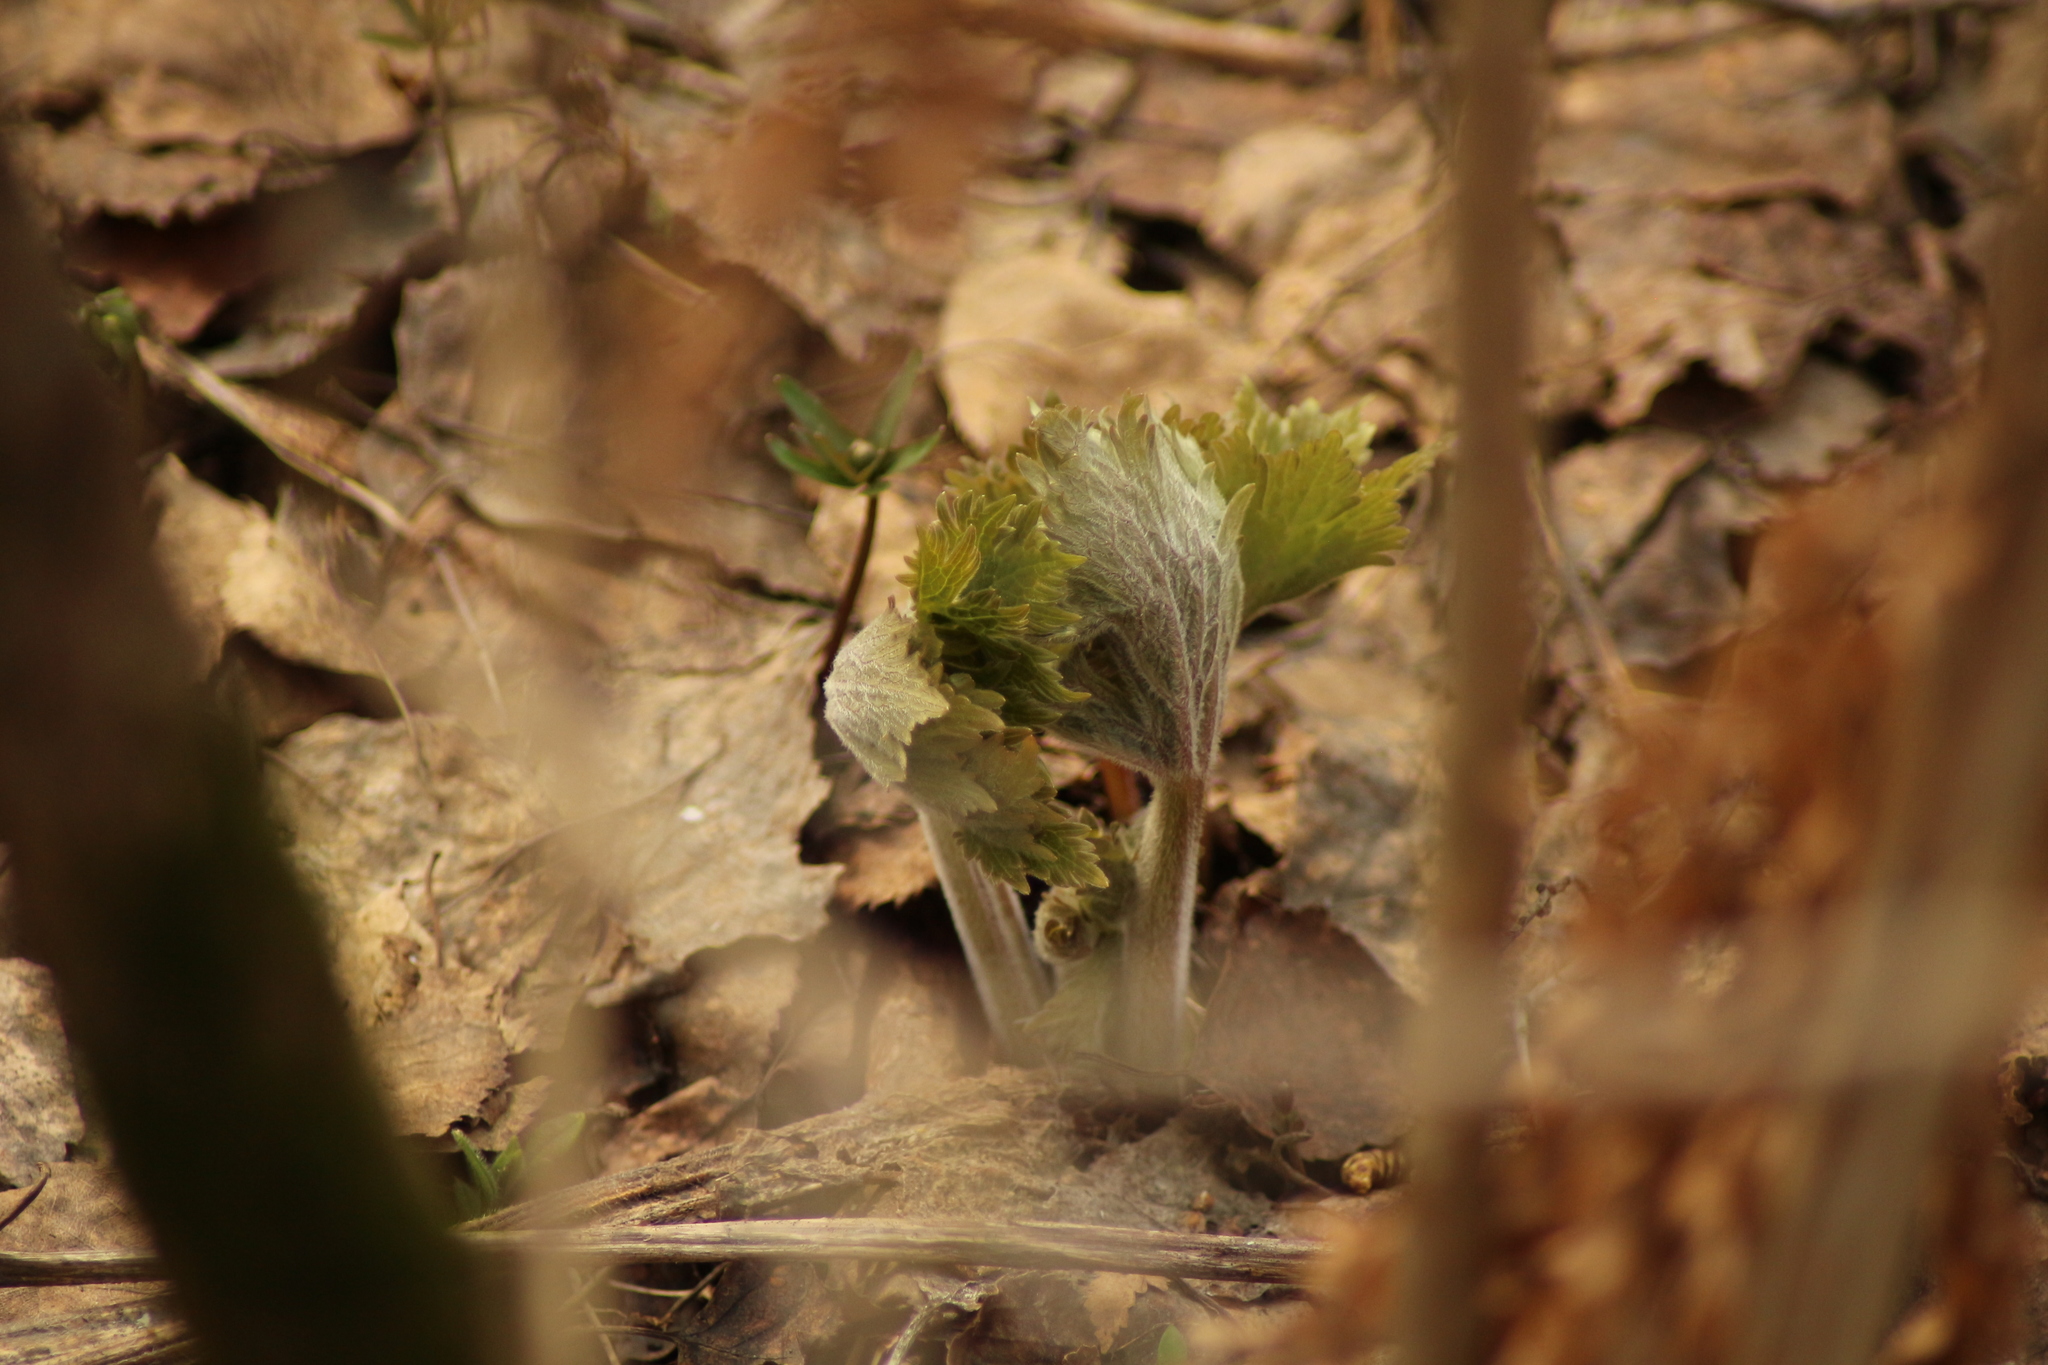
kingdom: Plantae
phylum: Tracheophyta
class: Magnoliopsida
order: Ranunculales
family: Ranunculaceae
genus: Aconitum
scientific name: Aconitum septentrionale
